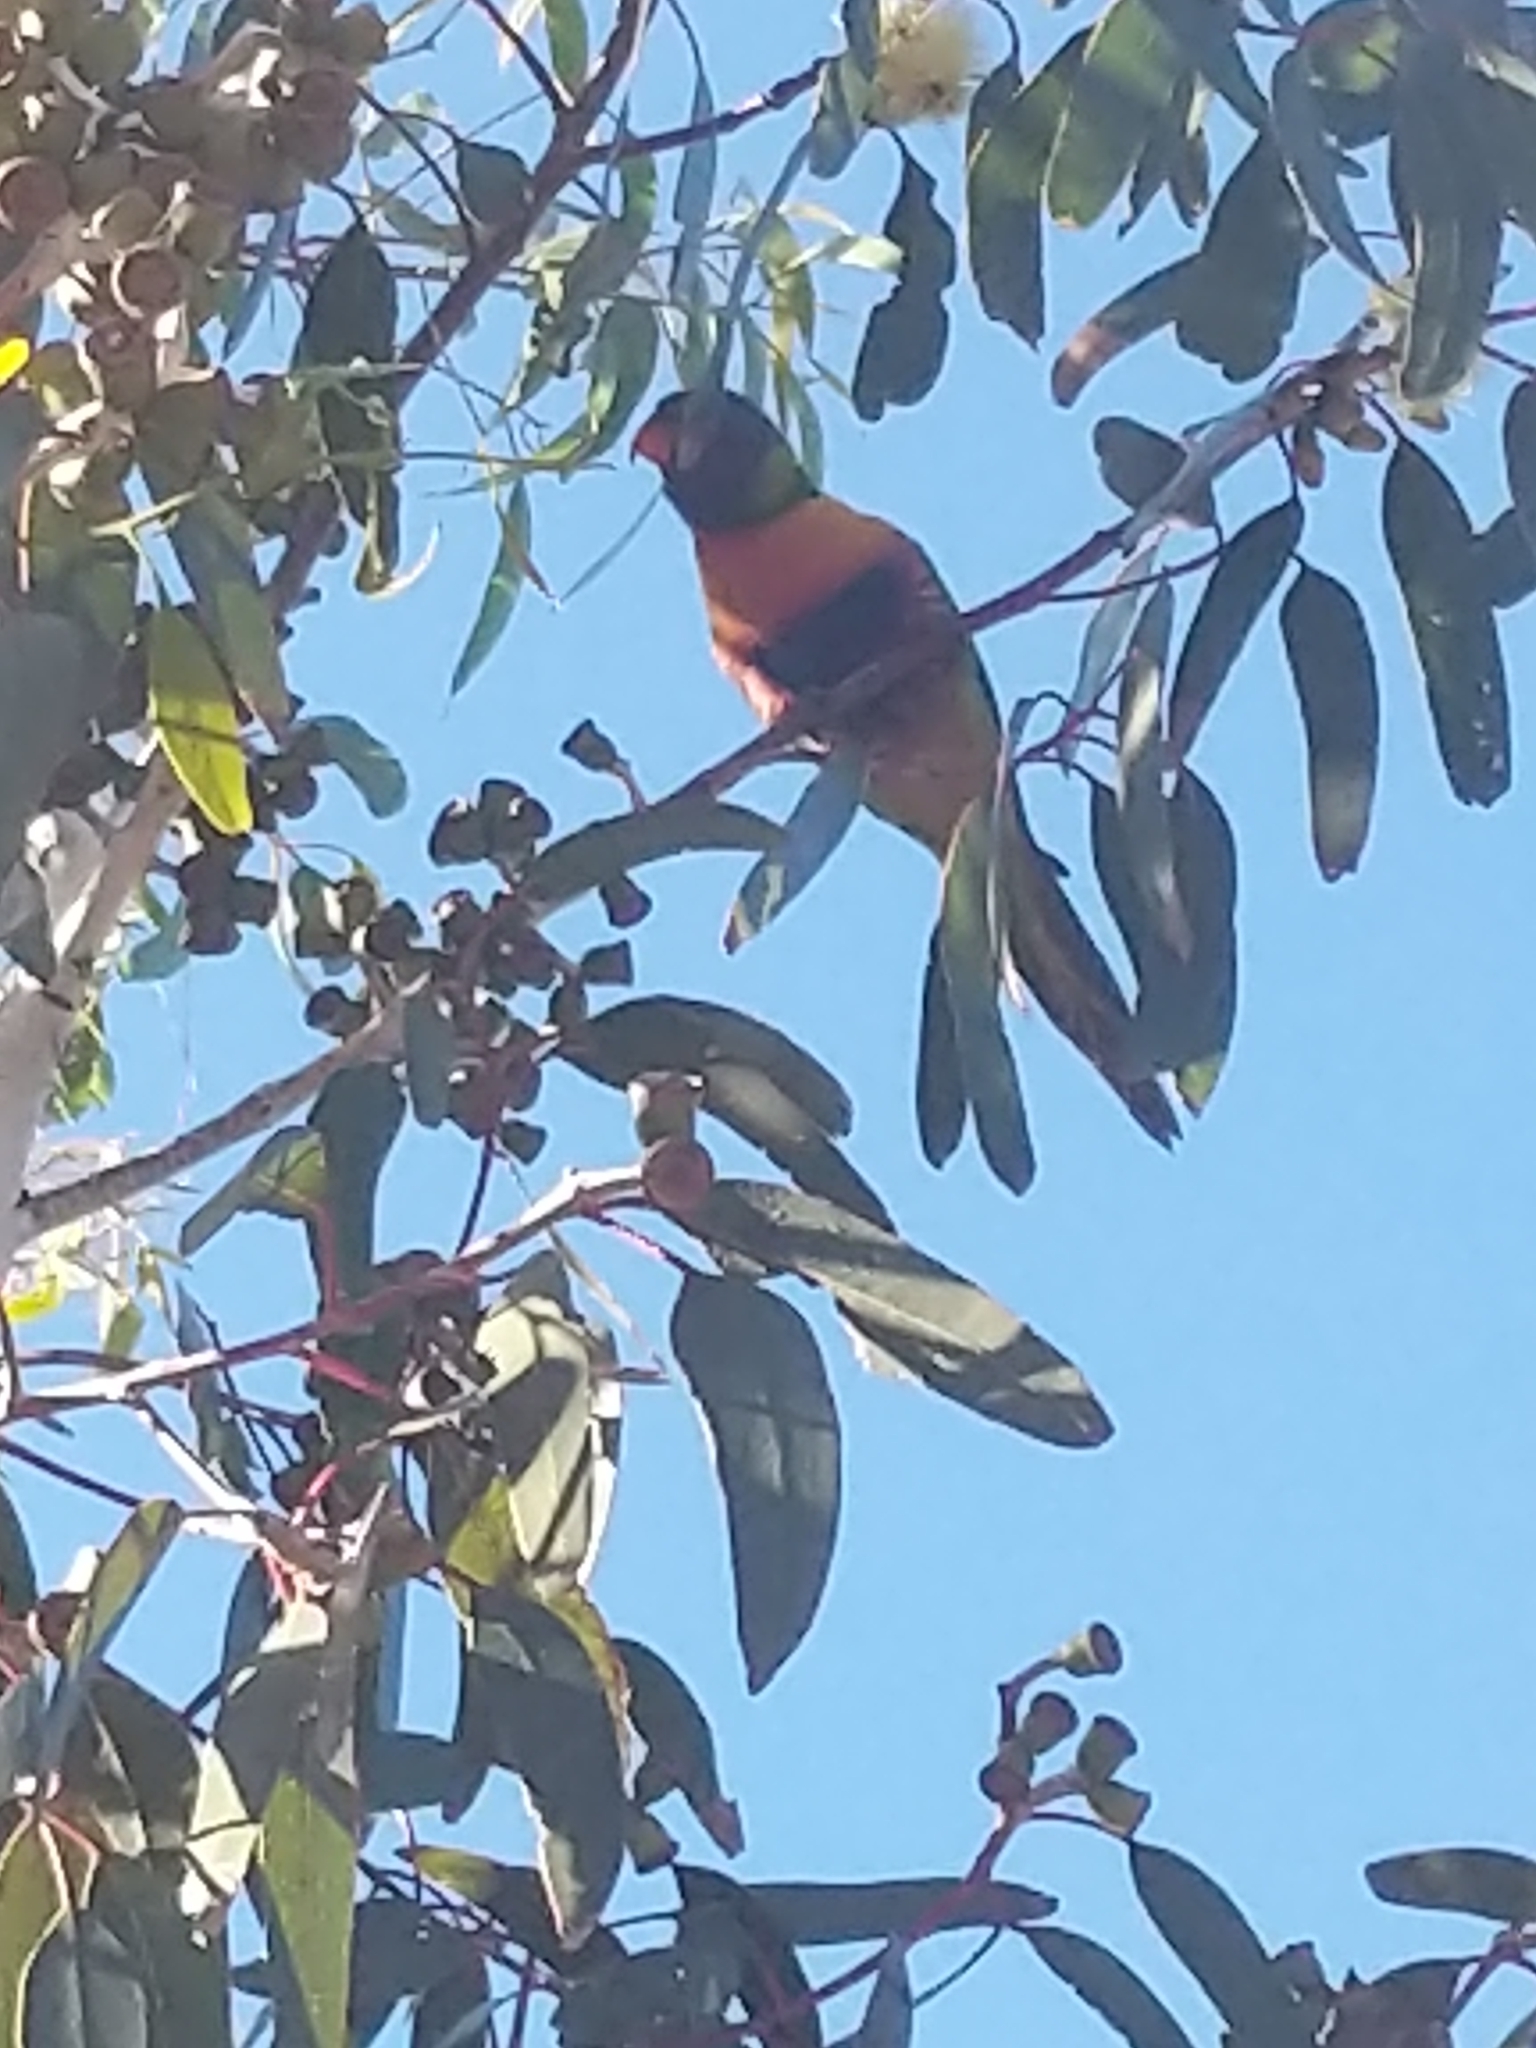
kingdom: Animalia
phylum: Chordata
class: Aves
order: Psittaciformes
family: Psittacidae
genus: Trichoglossus
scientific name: Trichoglossus haematodus
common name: Coconut lorikeet
